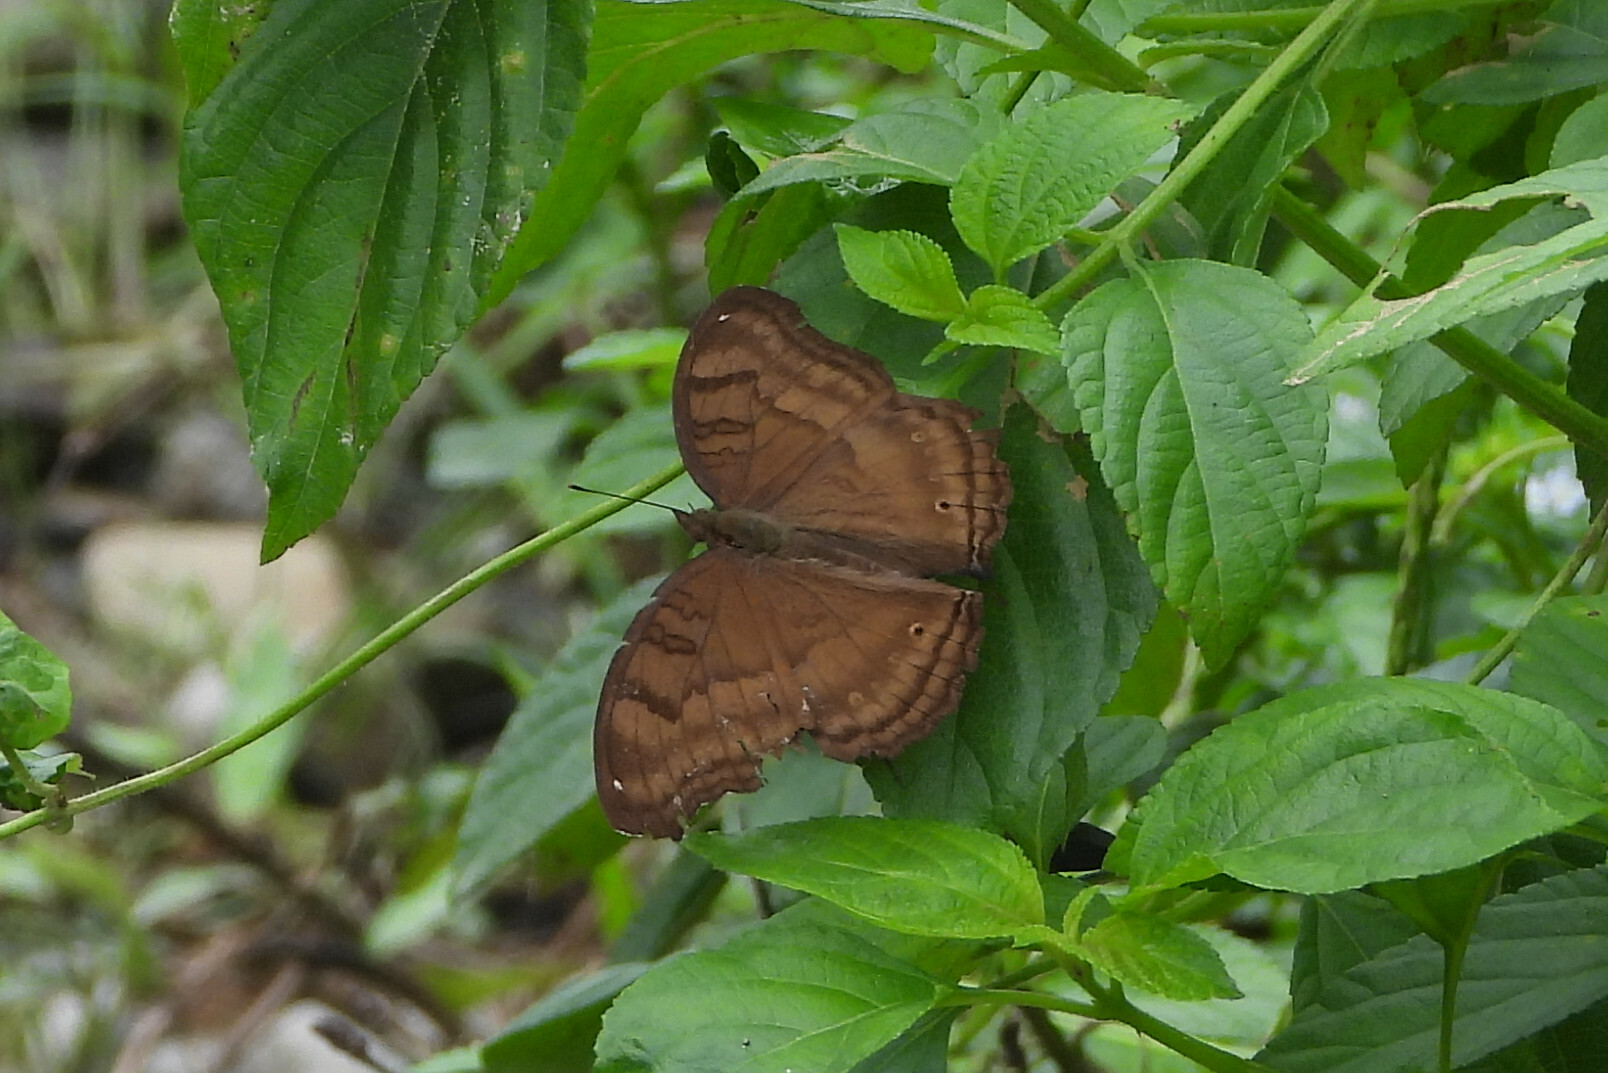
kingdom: Animalia
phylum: Arthropoda
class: Insecta
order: Lepidoptera
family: Nymphalidae
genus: Junonia
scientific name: Junonia iphita
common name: Chocolate pansy
